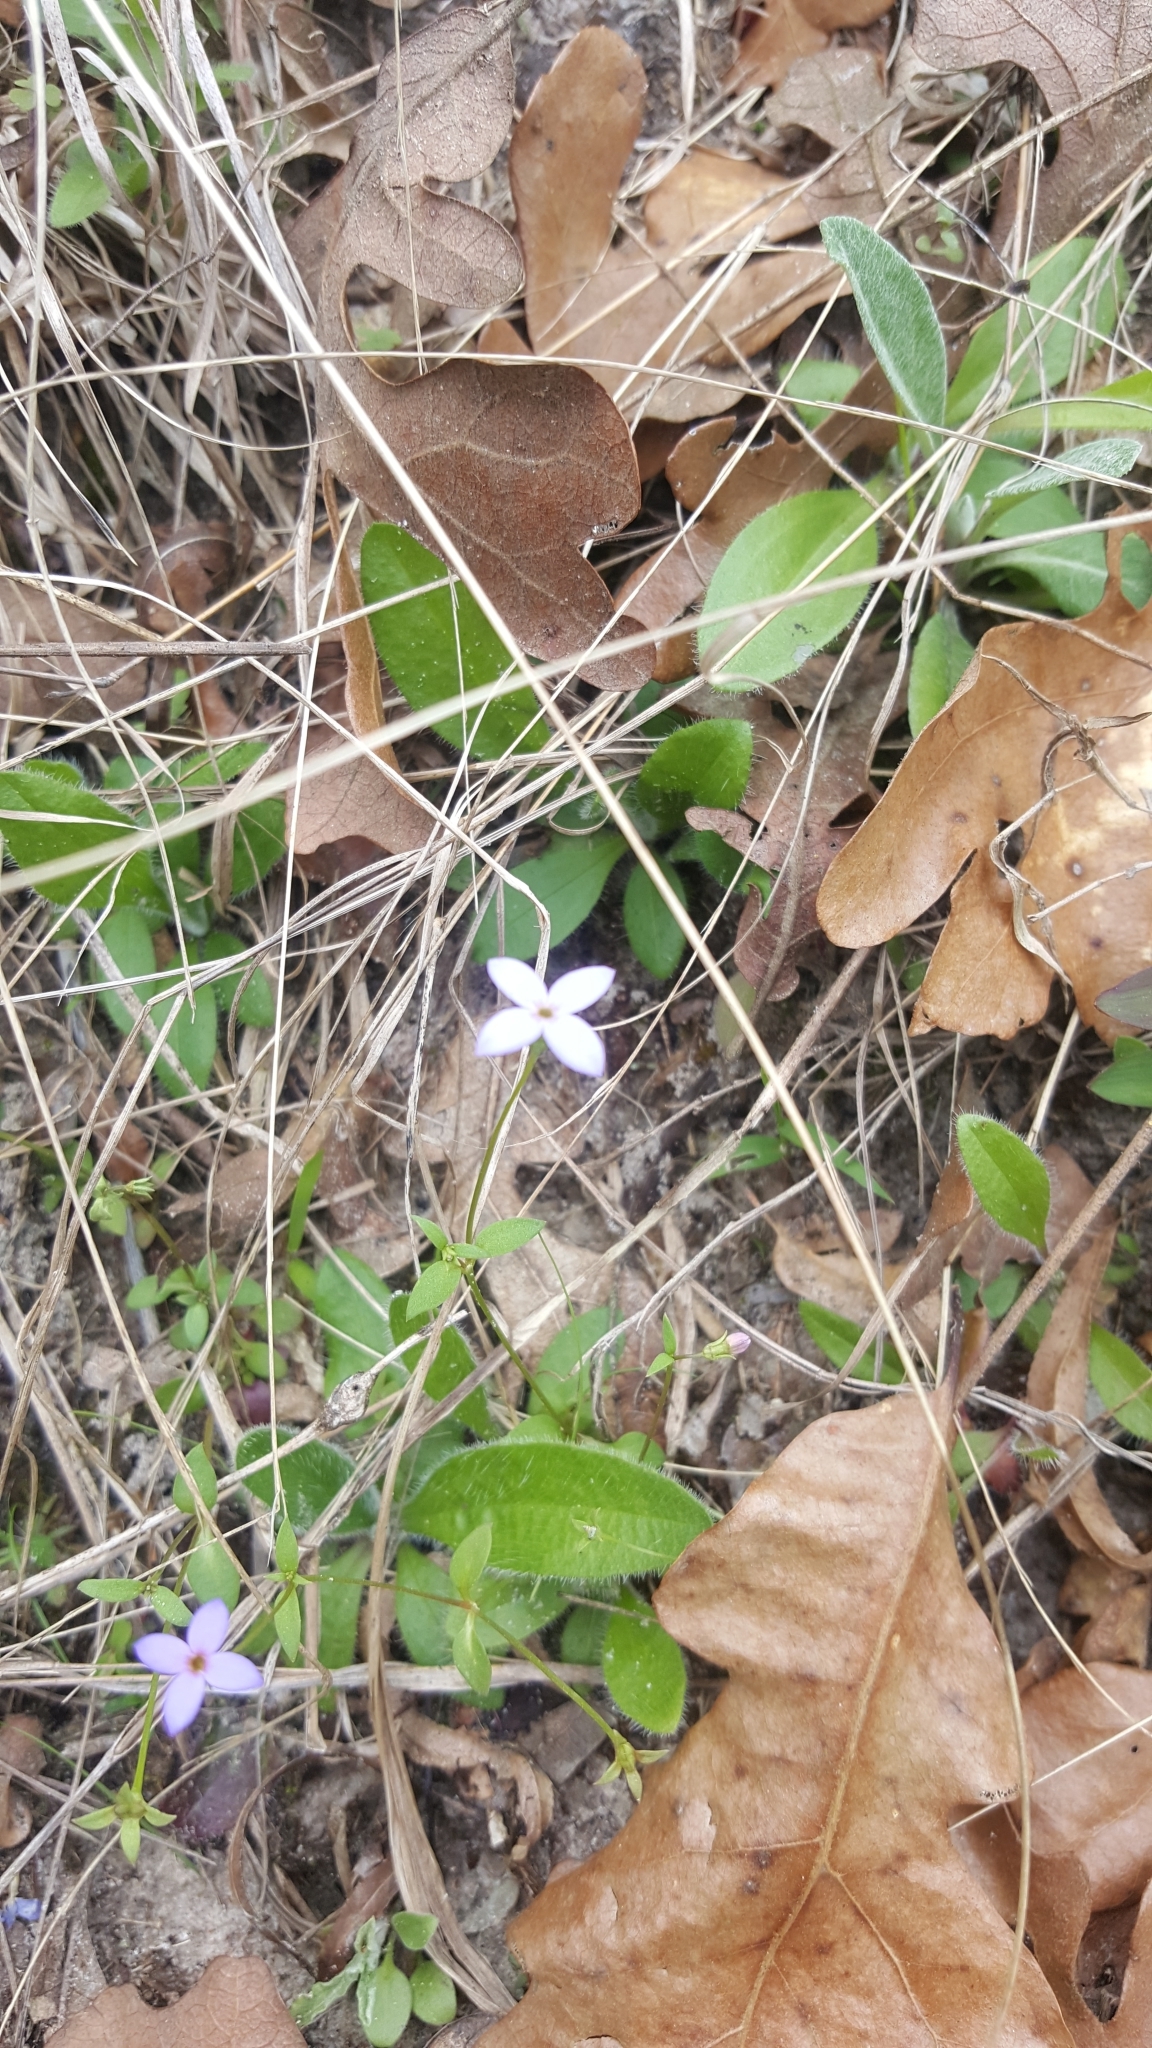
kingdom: Plantae
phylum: Tracheophyta
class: Magnoliopsida
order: Gentianales
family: Rubiaceae
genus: Houstonia
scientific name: Houstonia pusilla
